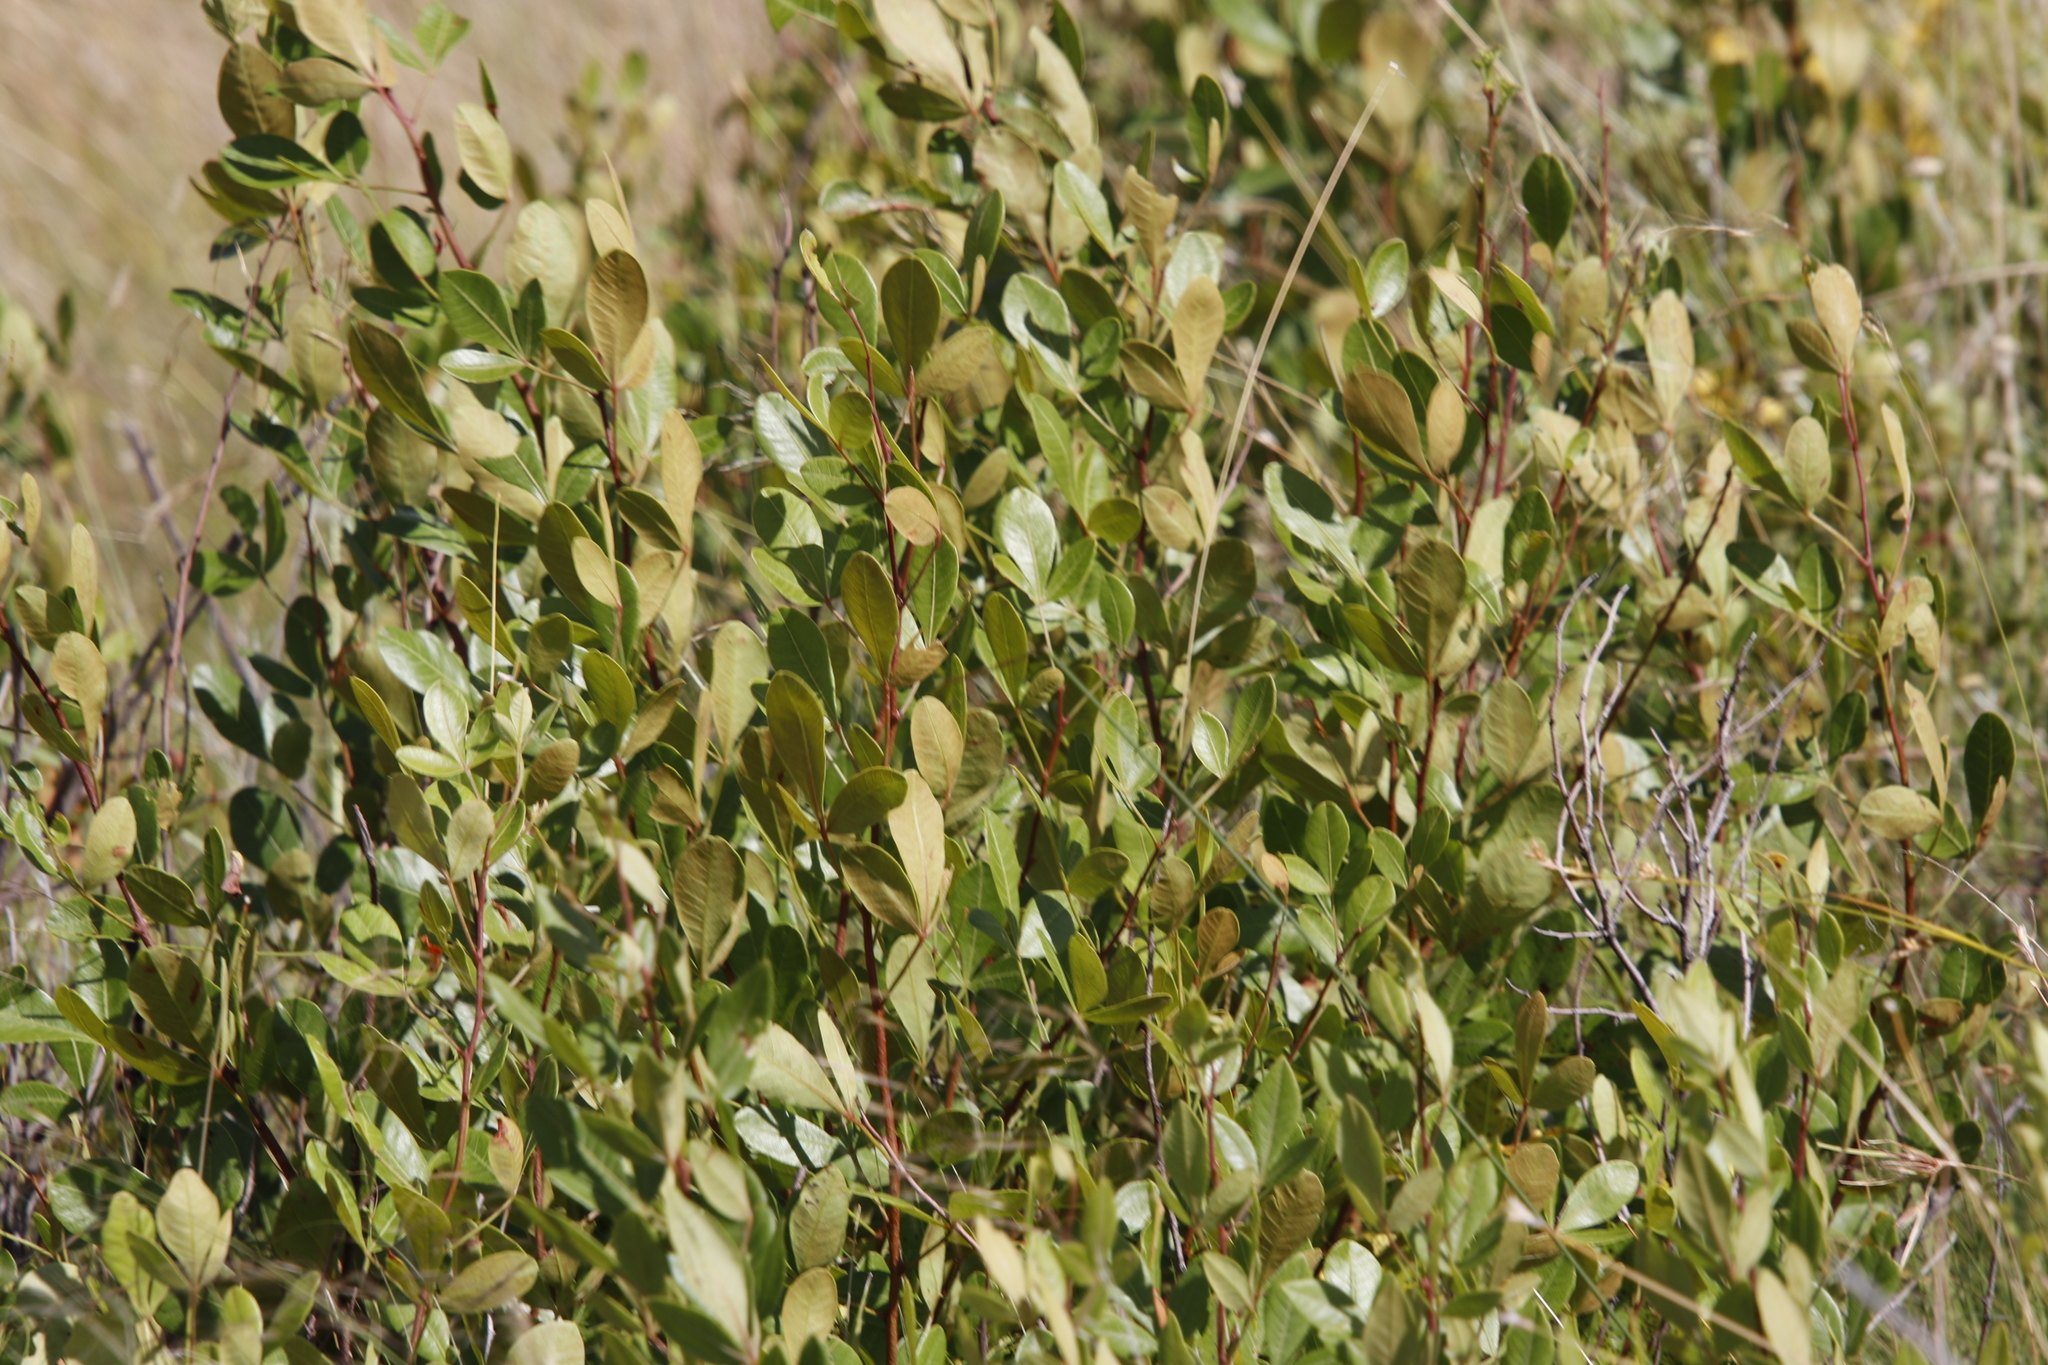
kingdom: Plantae
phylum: Tracheophyta
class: Magnoliopsida
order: Sapindales
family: Anacardiaceae
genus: Searsia
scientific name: Searsia divaricata
